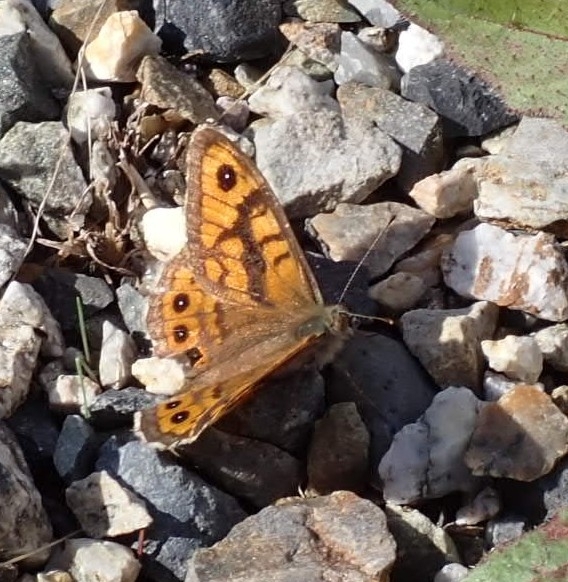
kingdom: Animalia
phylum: Arthropoda
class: Insecta
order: Lepidoptera
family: Nymphalidae
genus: Pararge
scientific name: Pararge Lasiommata megera
